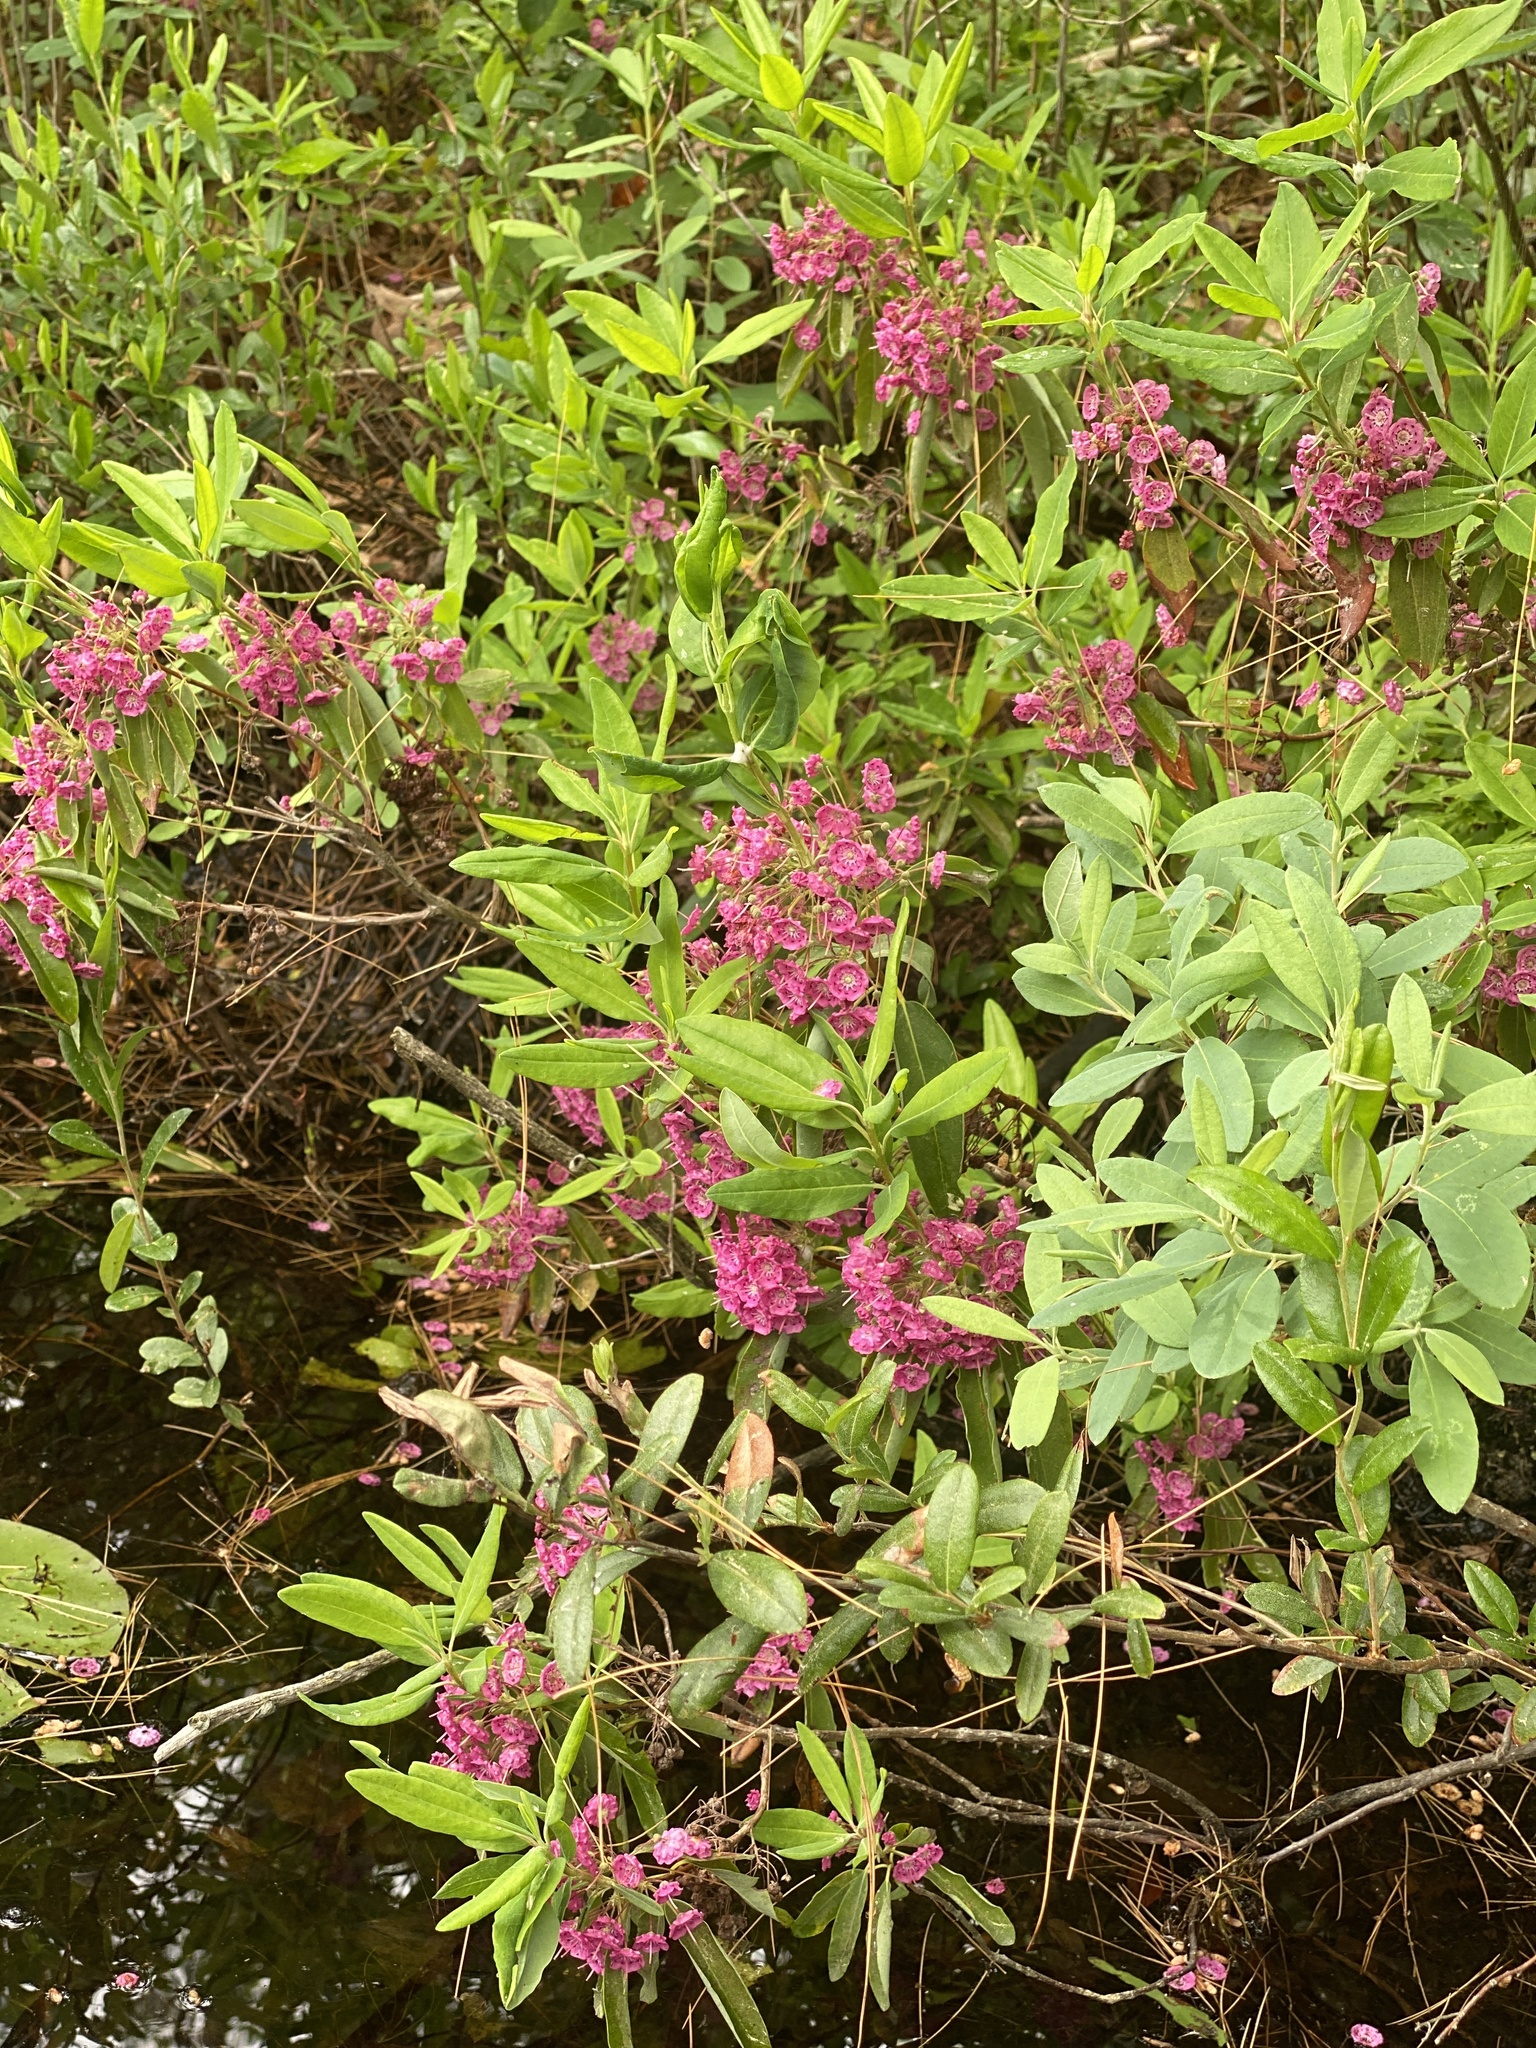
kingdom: Plantae
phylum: Tracheophyta
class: Magnoliopsida
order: Ericales
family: Ericaceae
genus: Kalmia
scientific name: Kalmia angustifolia
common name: Sheep-laurel
